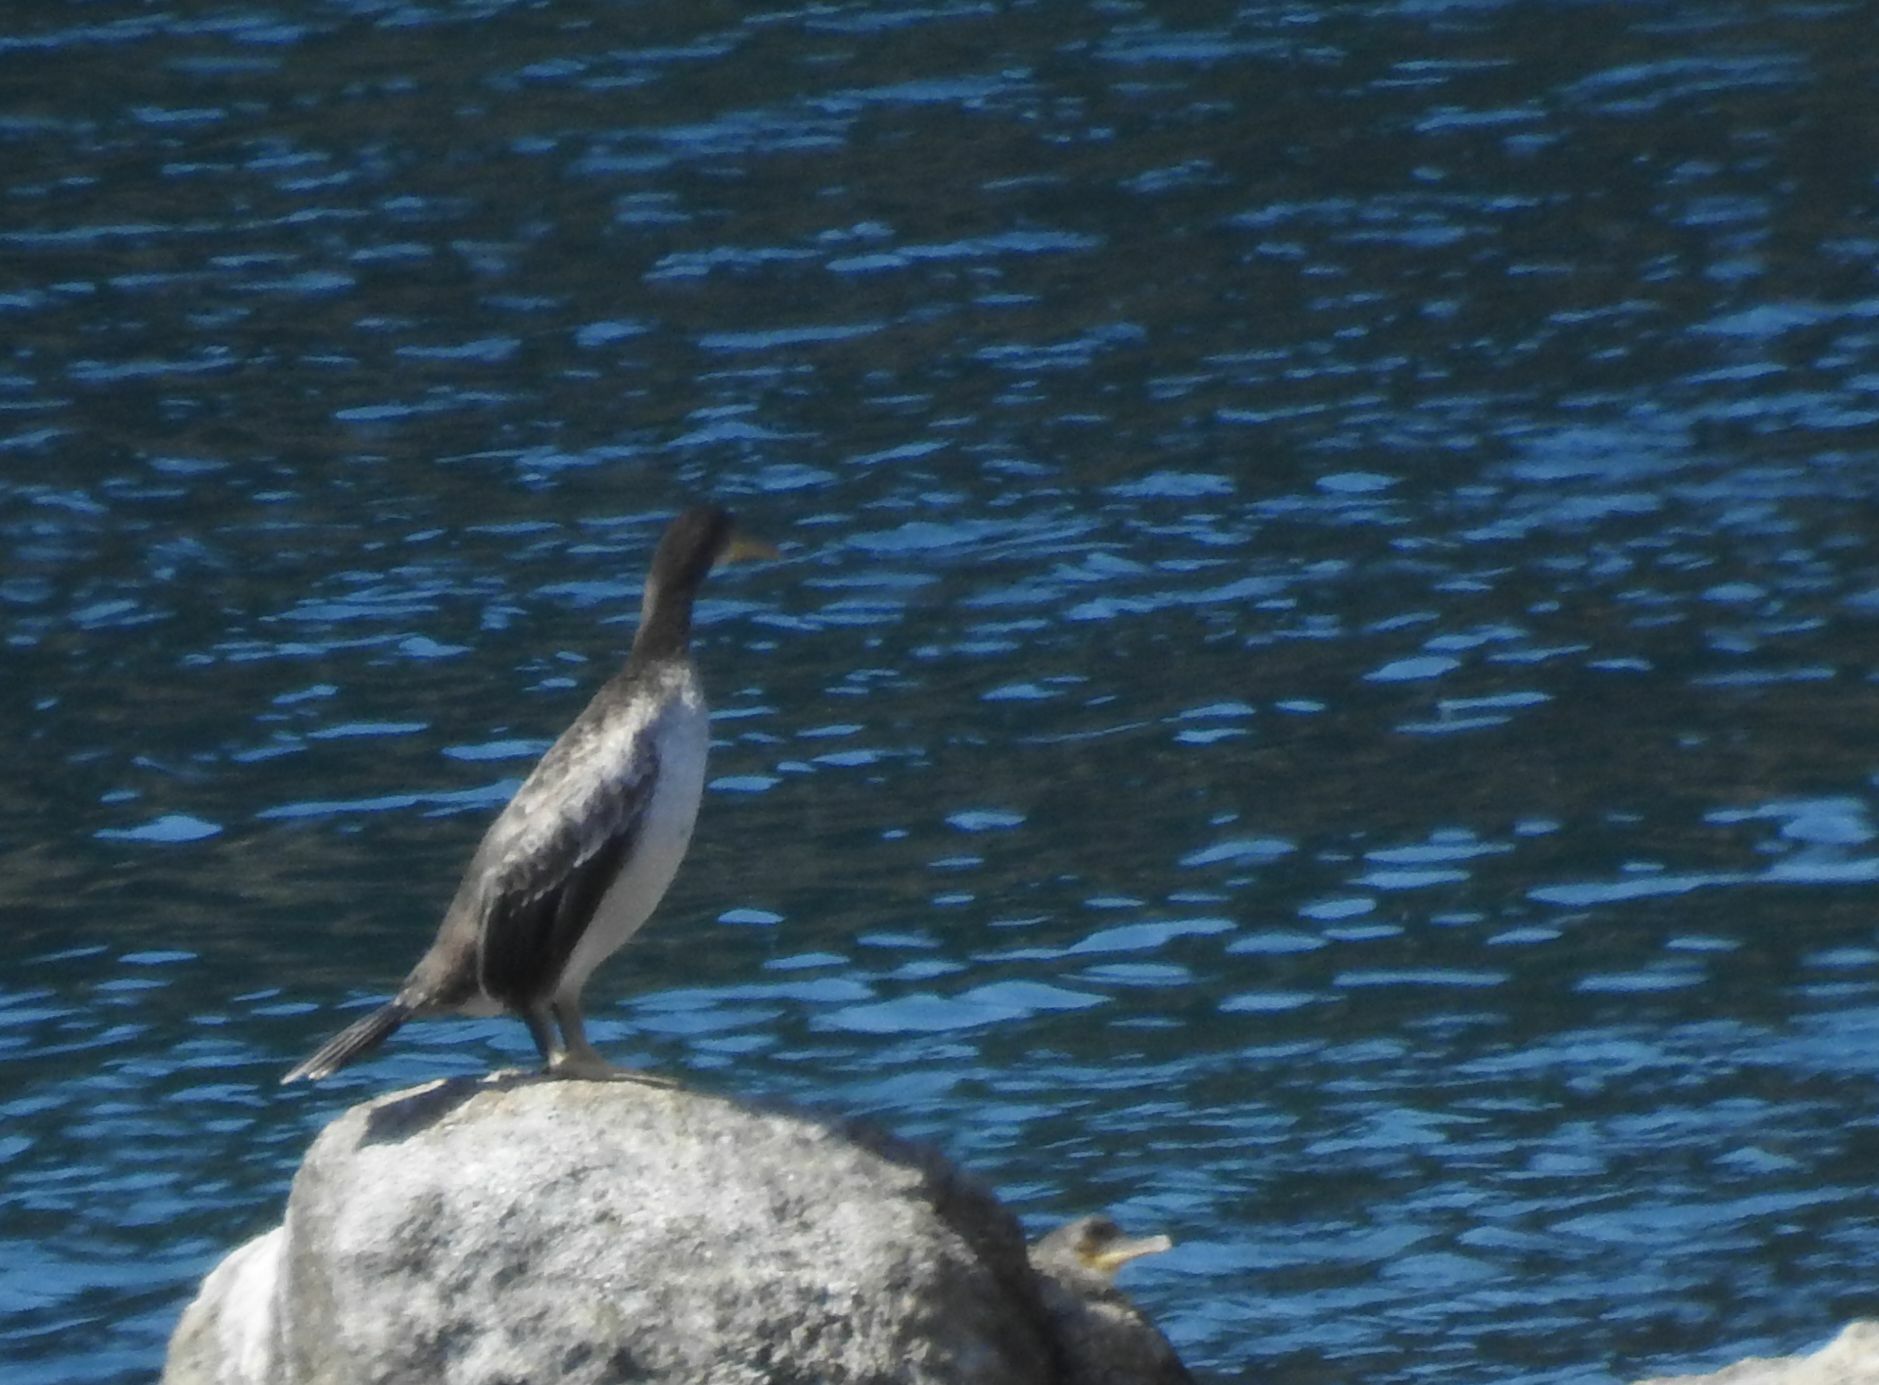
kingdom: Animalia
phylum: Chordata
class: Aves
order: Suliformes
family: Phalacrocoracidae
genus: Phalacrocorax
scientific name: Phalacrocorax aristotelis
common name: European shag
